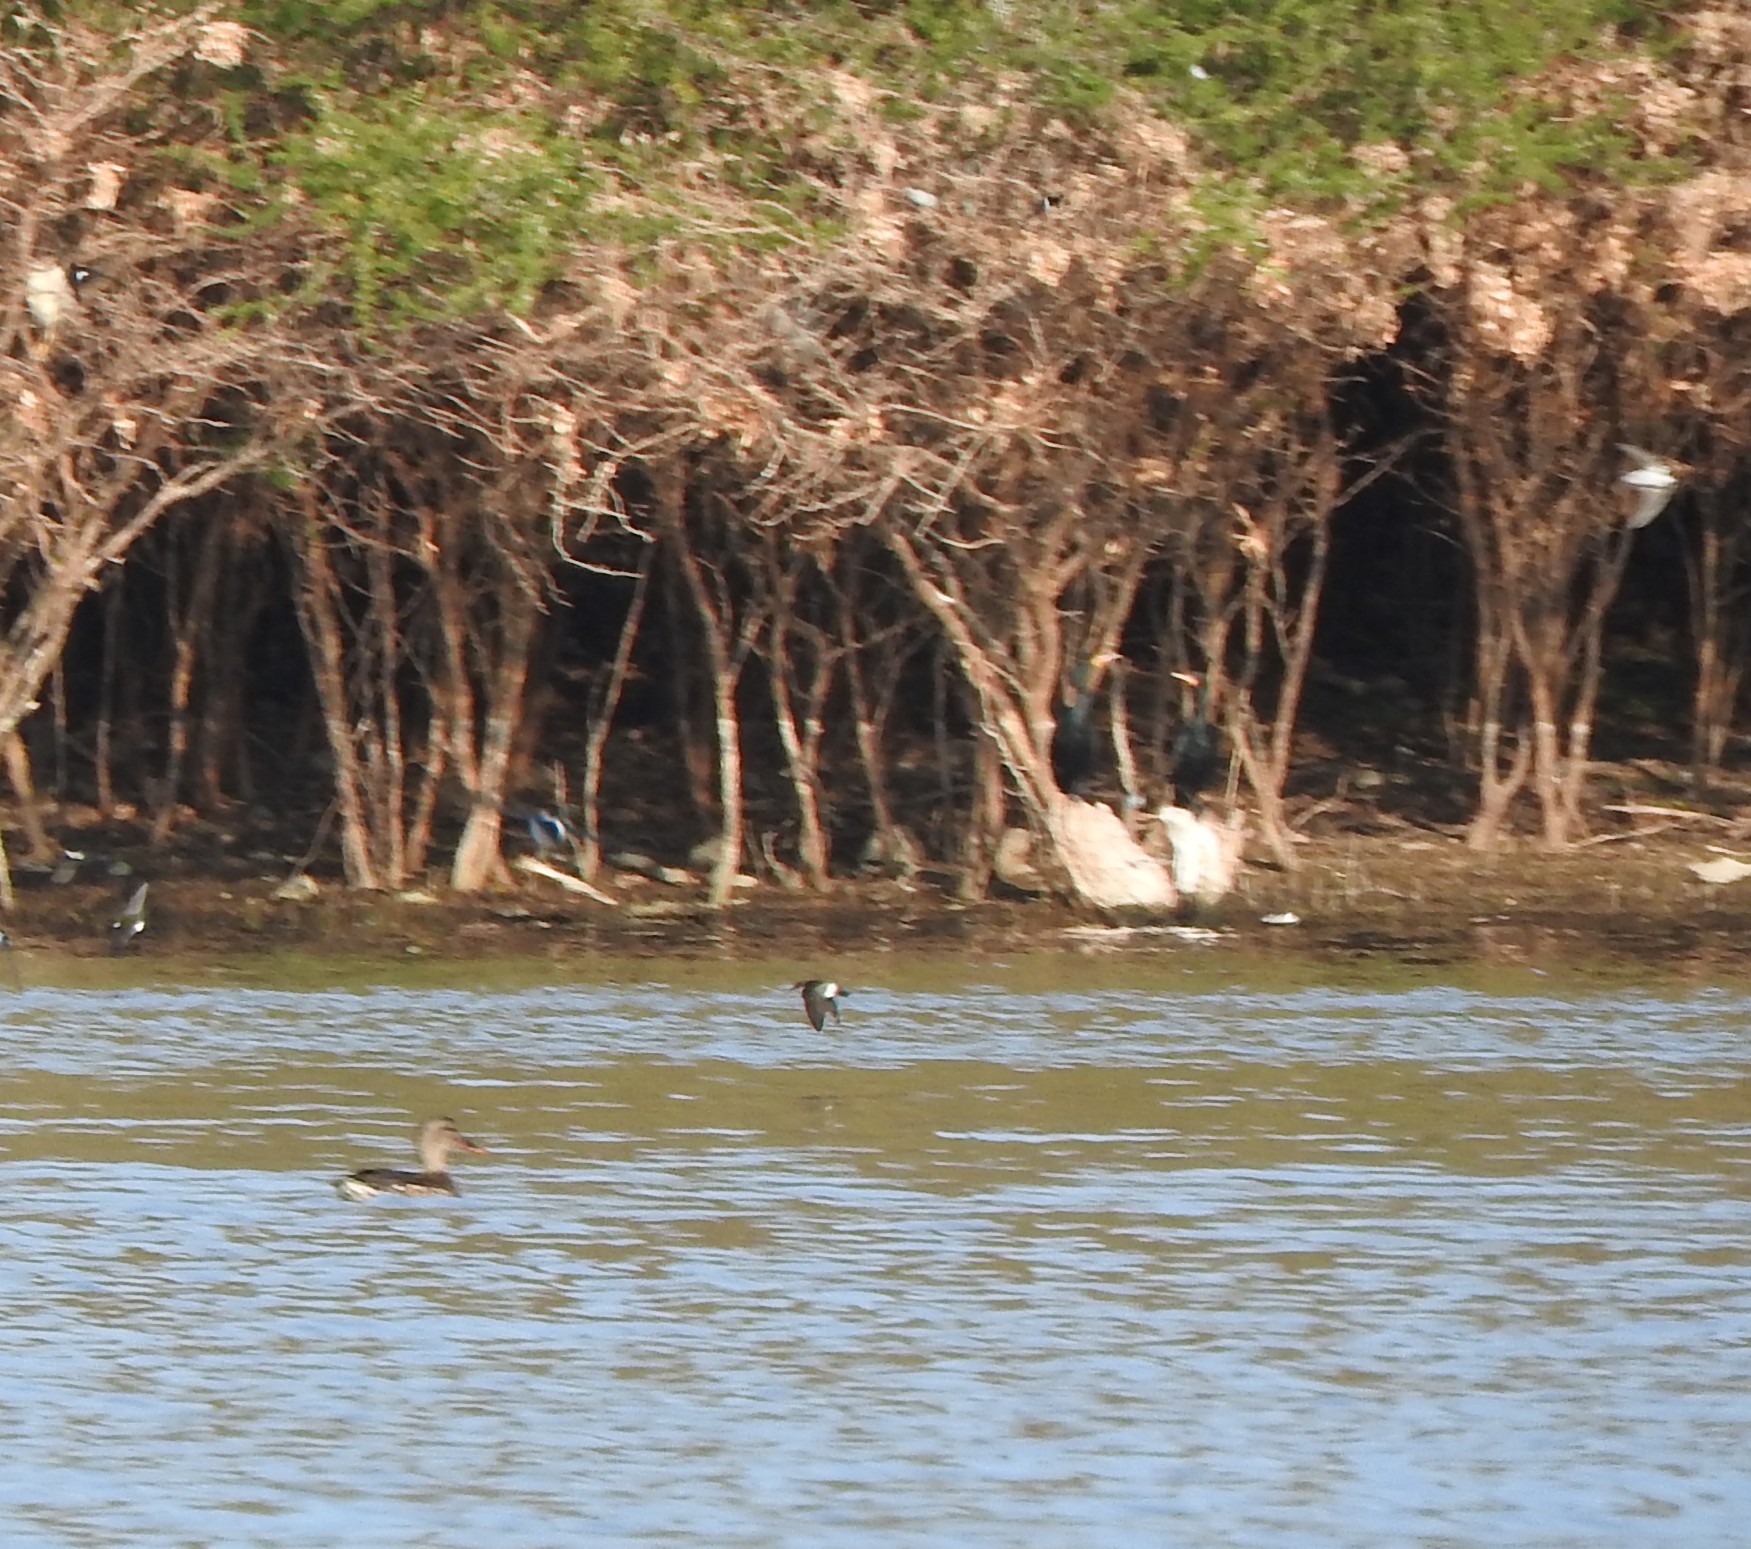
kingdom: Animalia
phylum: Chordata
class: Aves
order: Anseriformes
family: Anatidae
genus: Mareca
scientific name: Mareca strepera
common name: Gadwall
